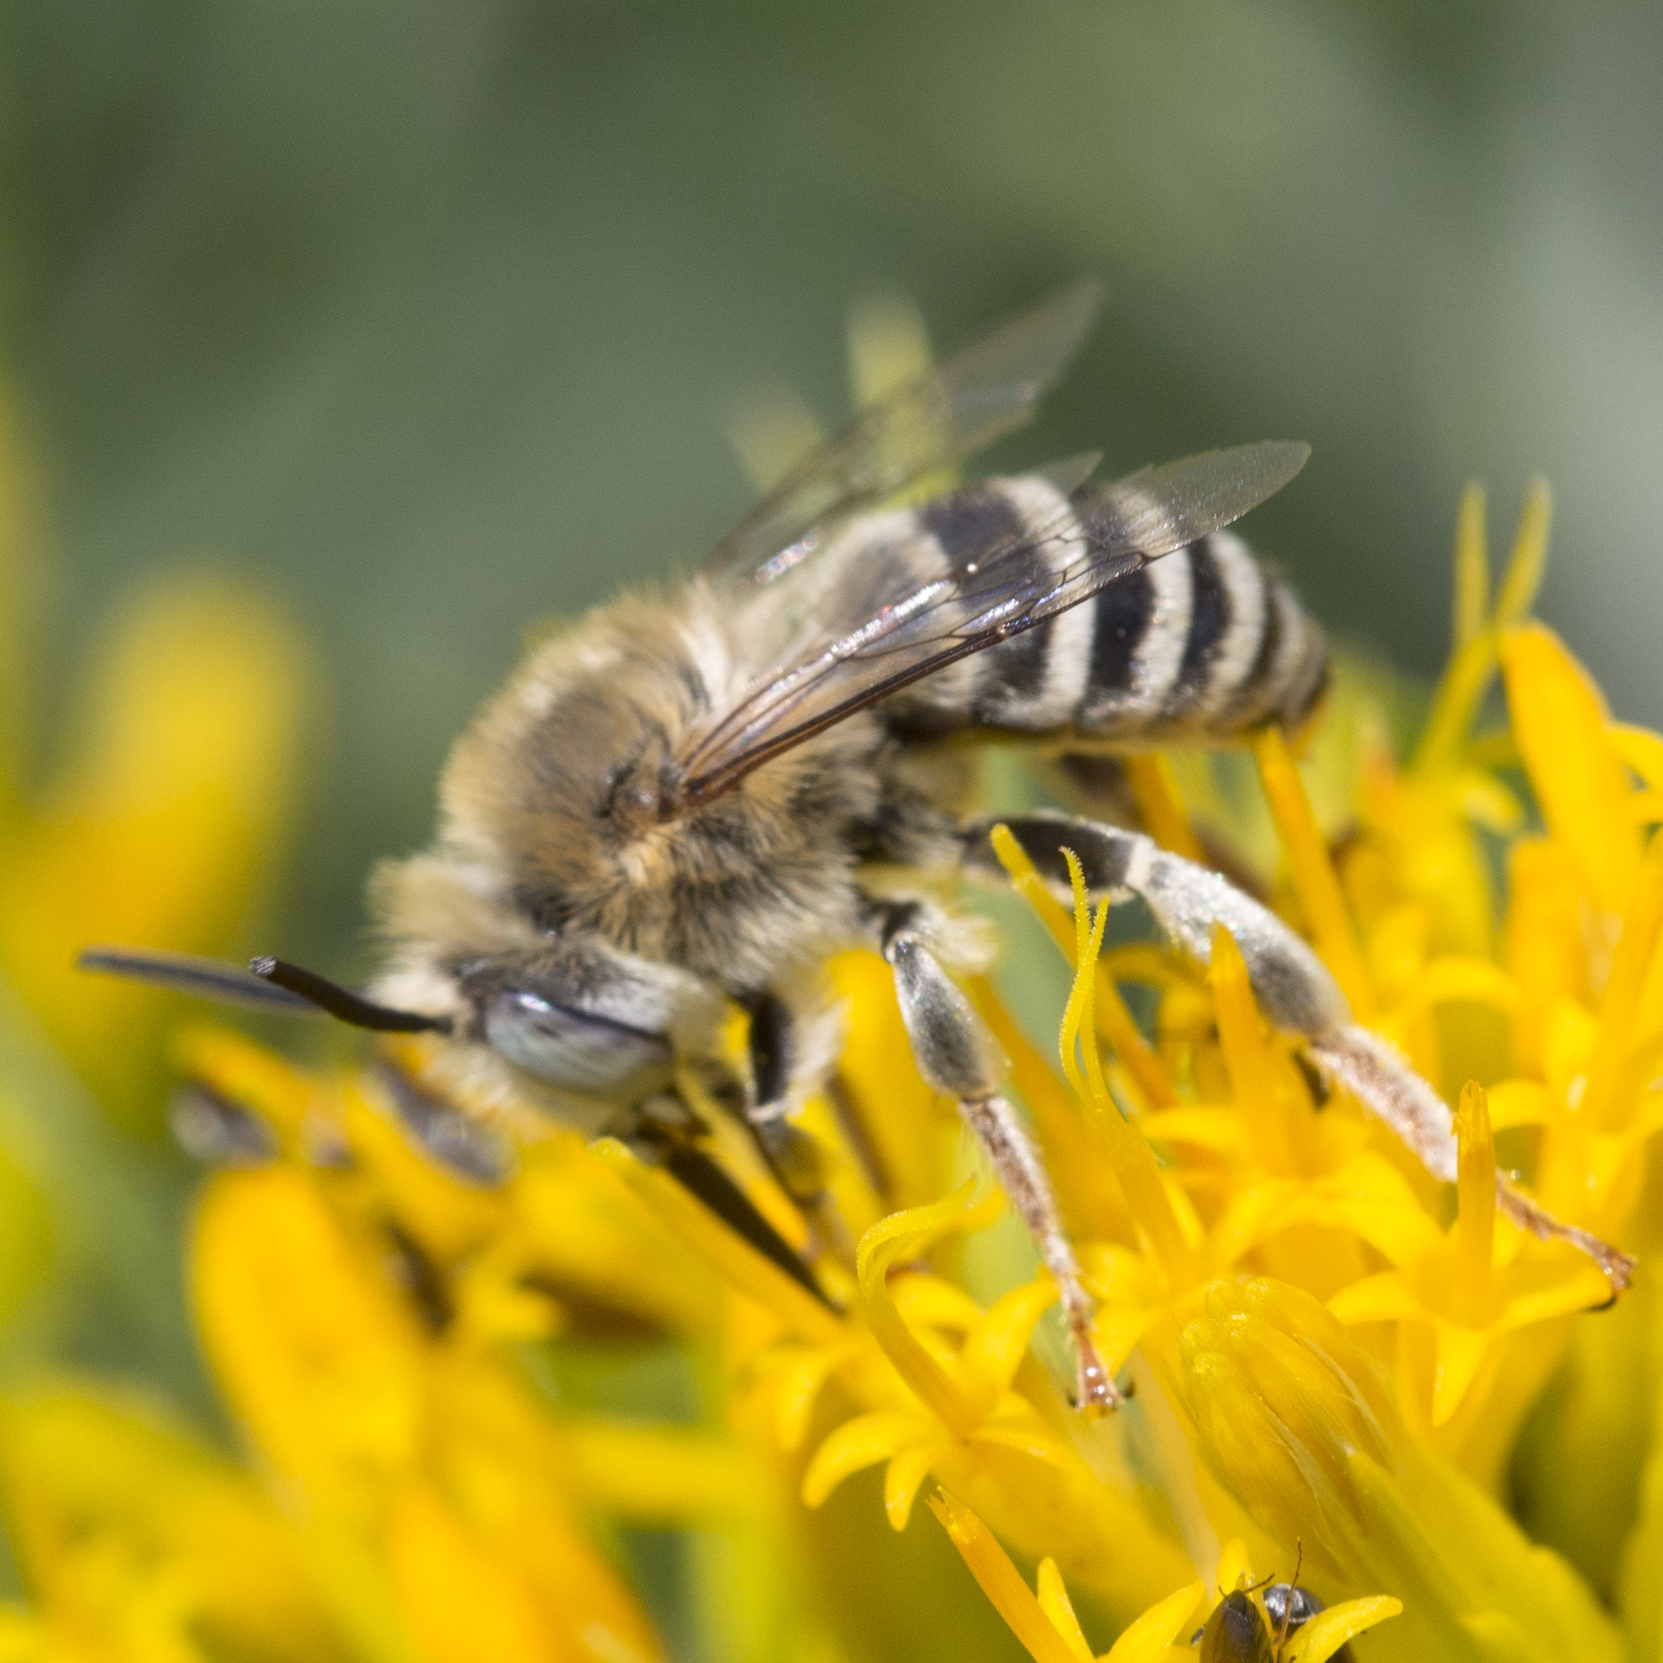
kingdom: Animalia
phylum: Arthropoda
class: Insecta
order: Hymenoptera
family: Apidae
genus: Anthophora
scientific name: Anthophora urbana
